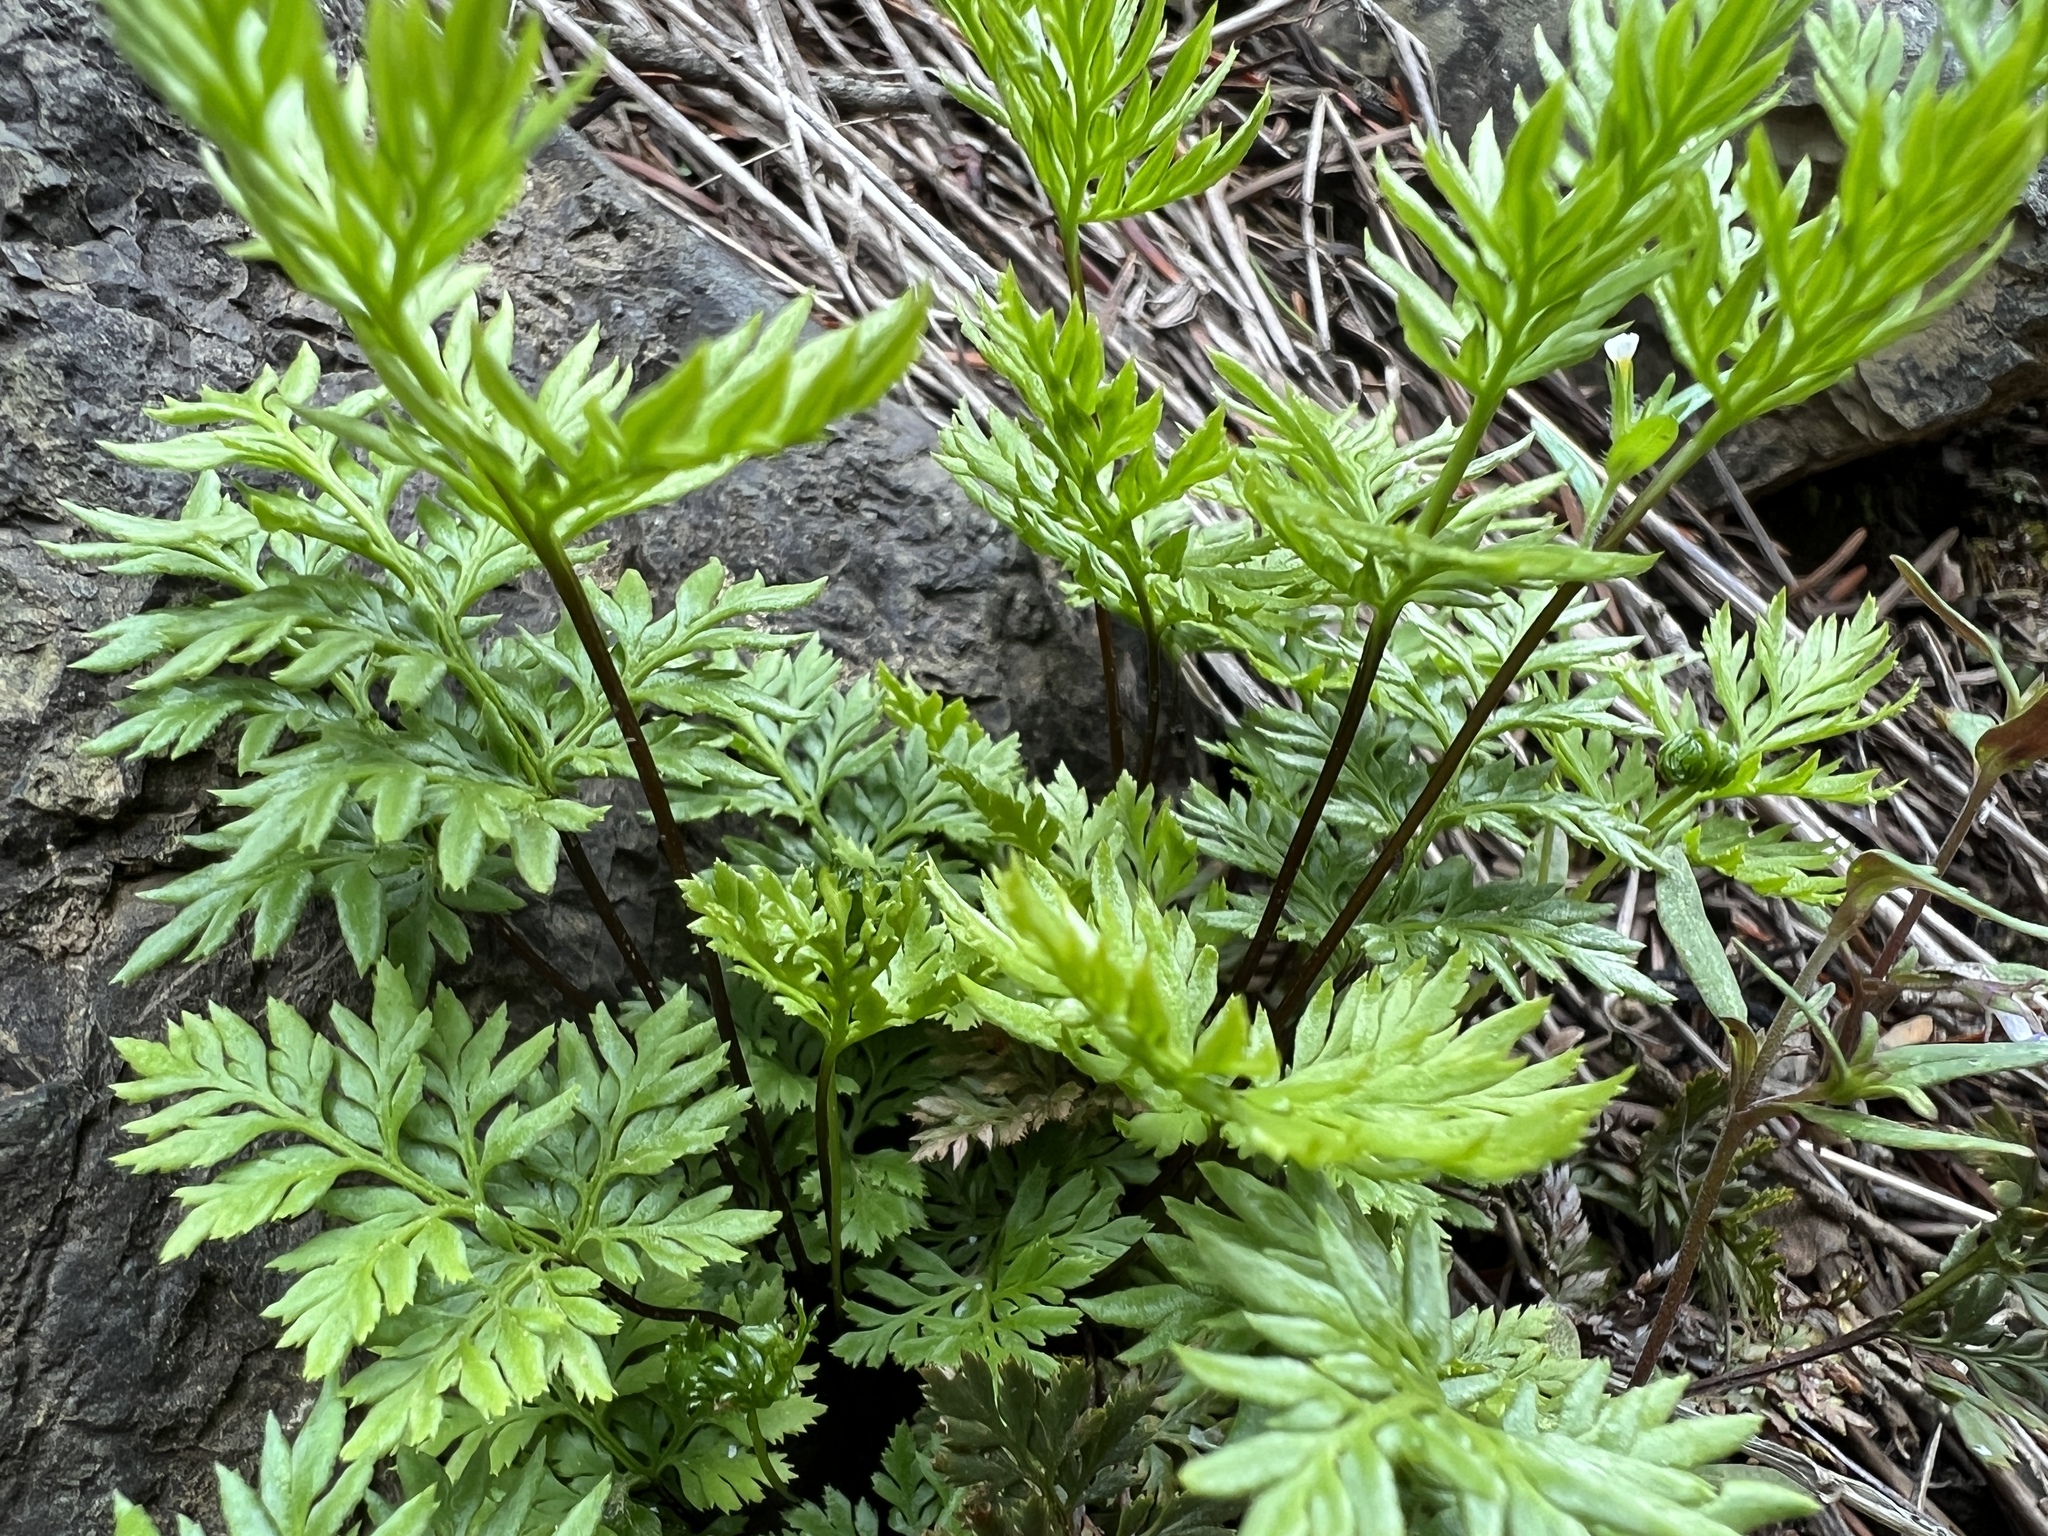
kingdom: Plantae
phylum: Tracheophyta
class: Polypodiopsida
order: Polypodiales
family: Pteridaceae
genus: Aspidotis
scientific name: Aspidotis densa
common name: Indian's dream
